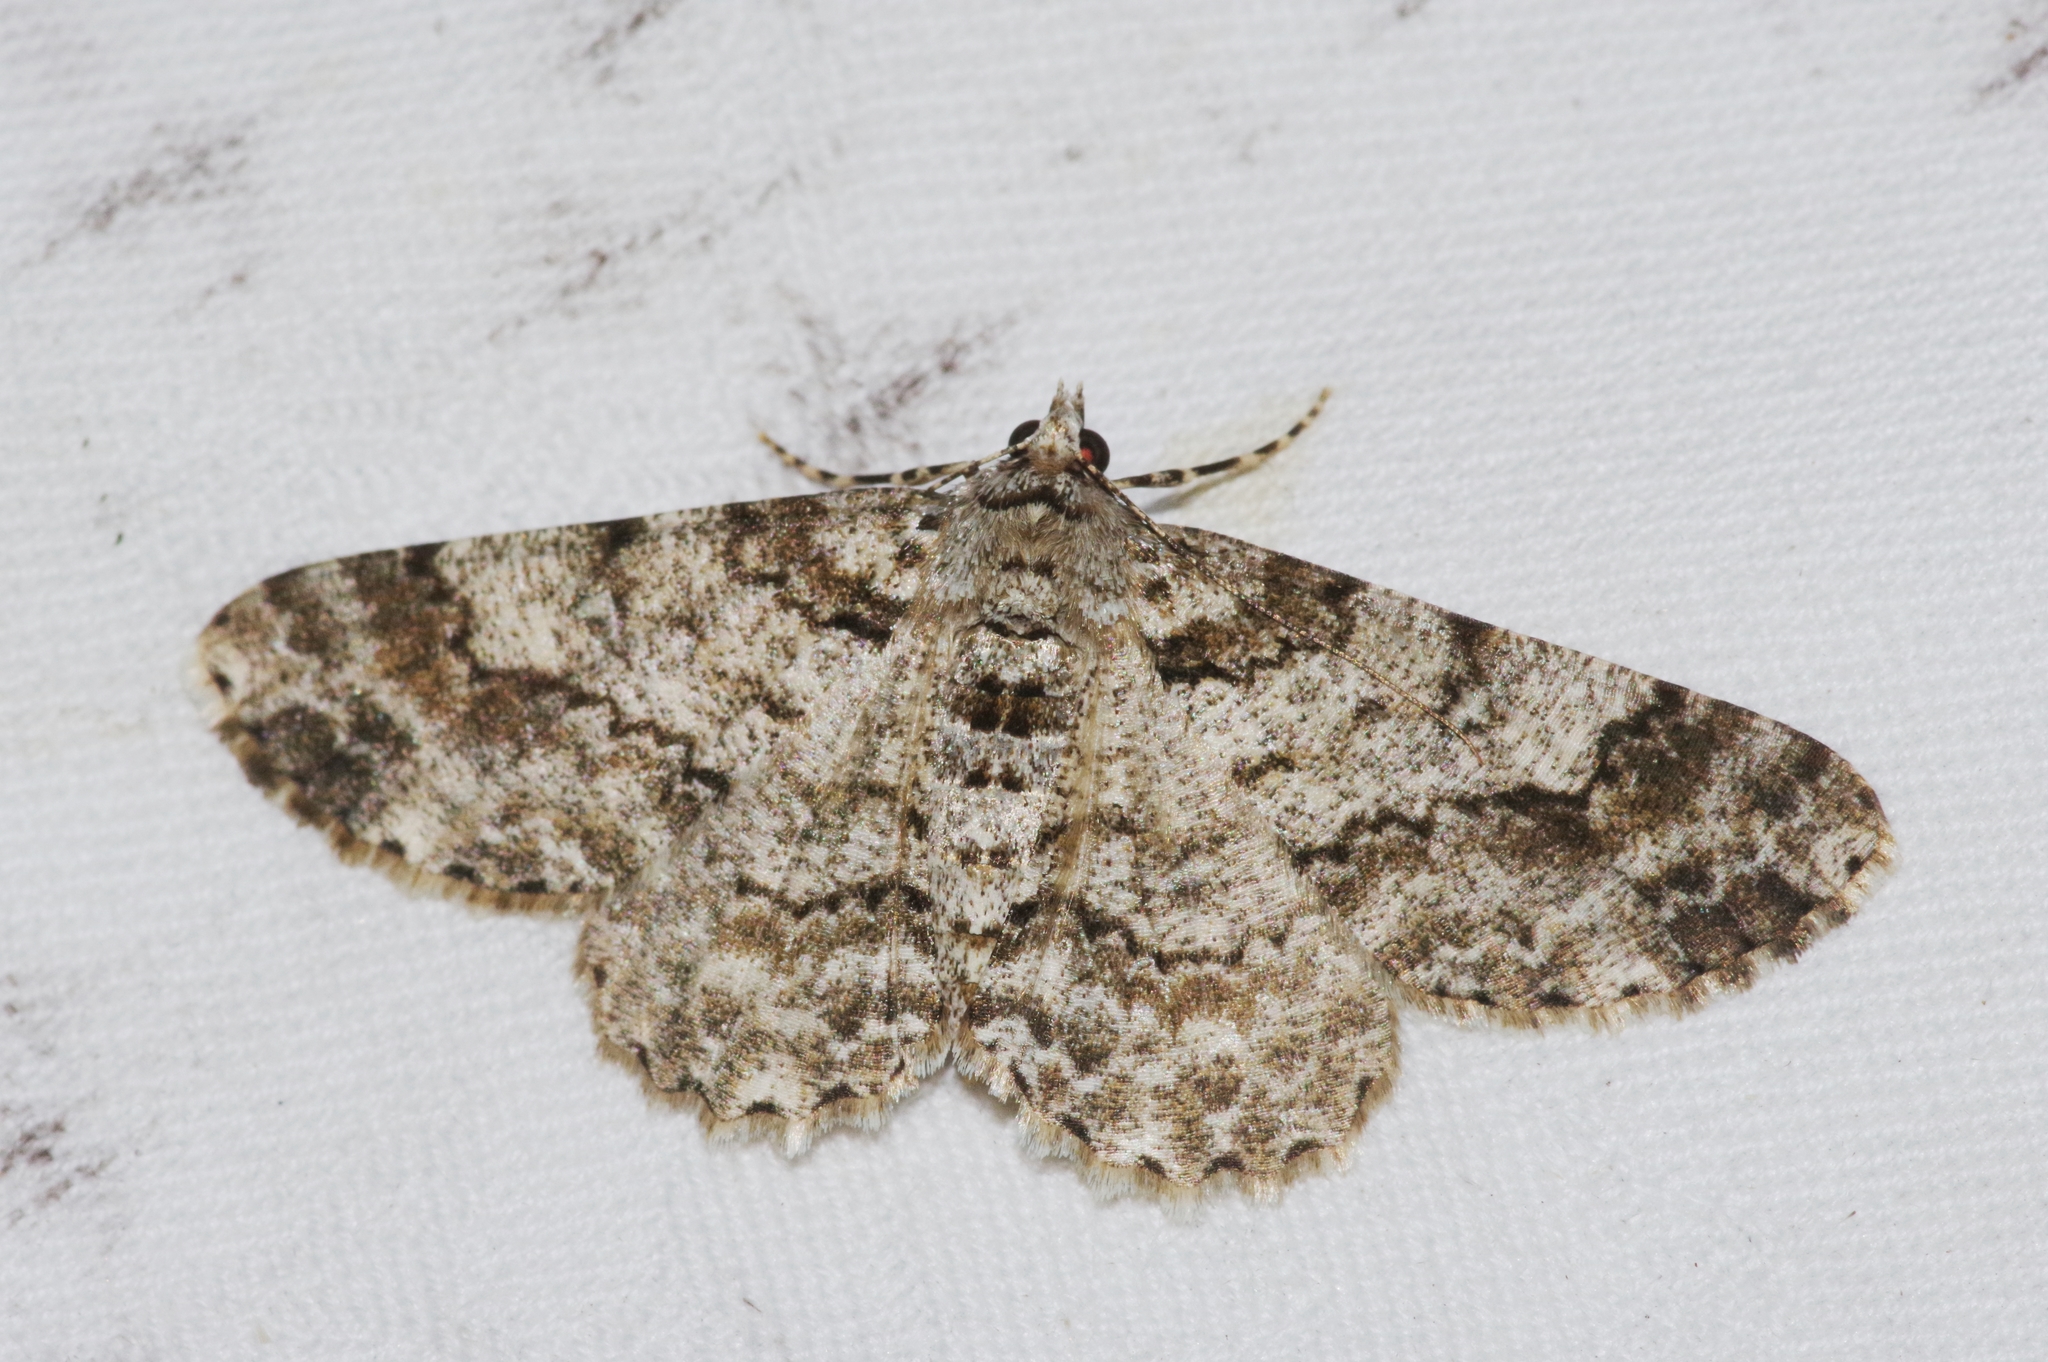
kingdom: Animalia
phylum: Arthropoda
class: Insecta
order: Lepidoptera
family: Geometridae
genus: Cleora
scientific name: Cleora minutaria
